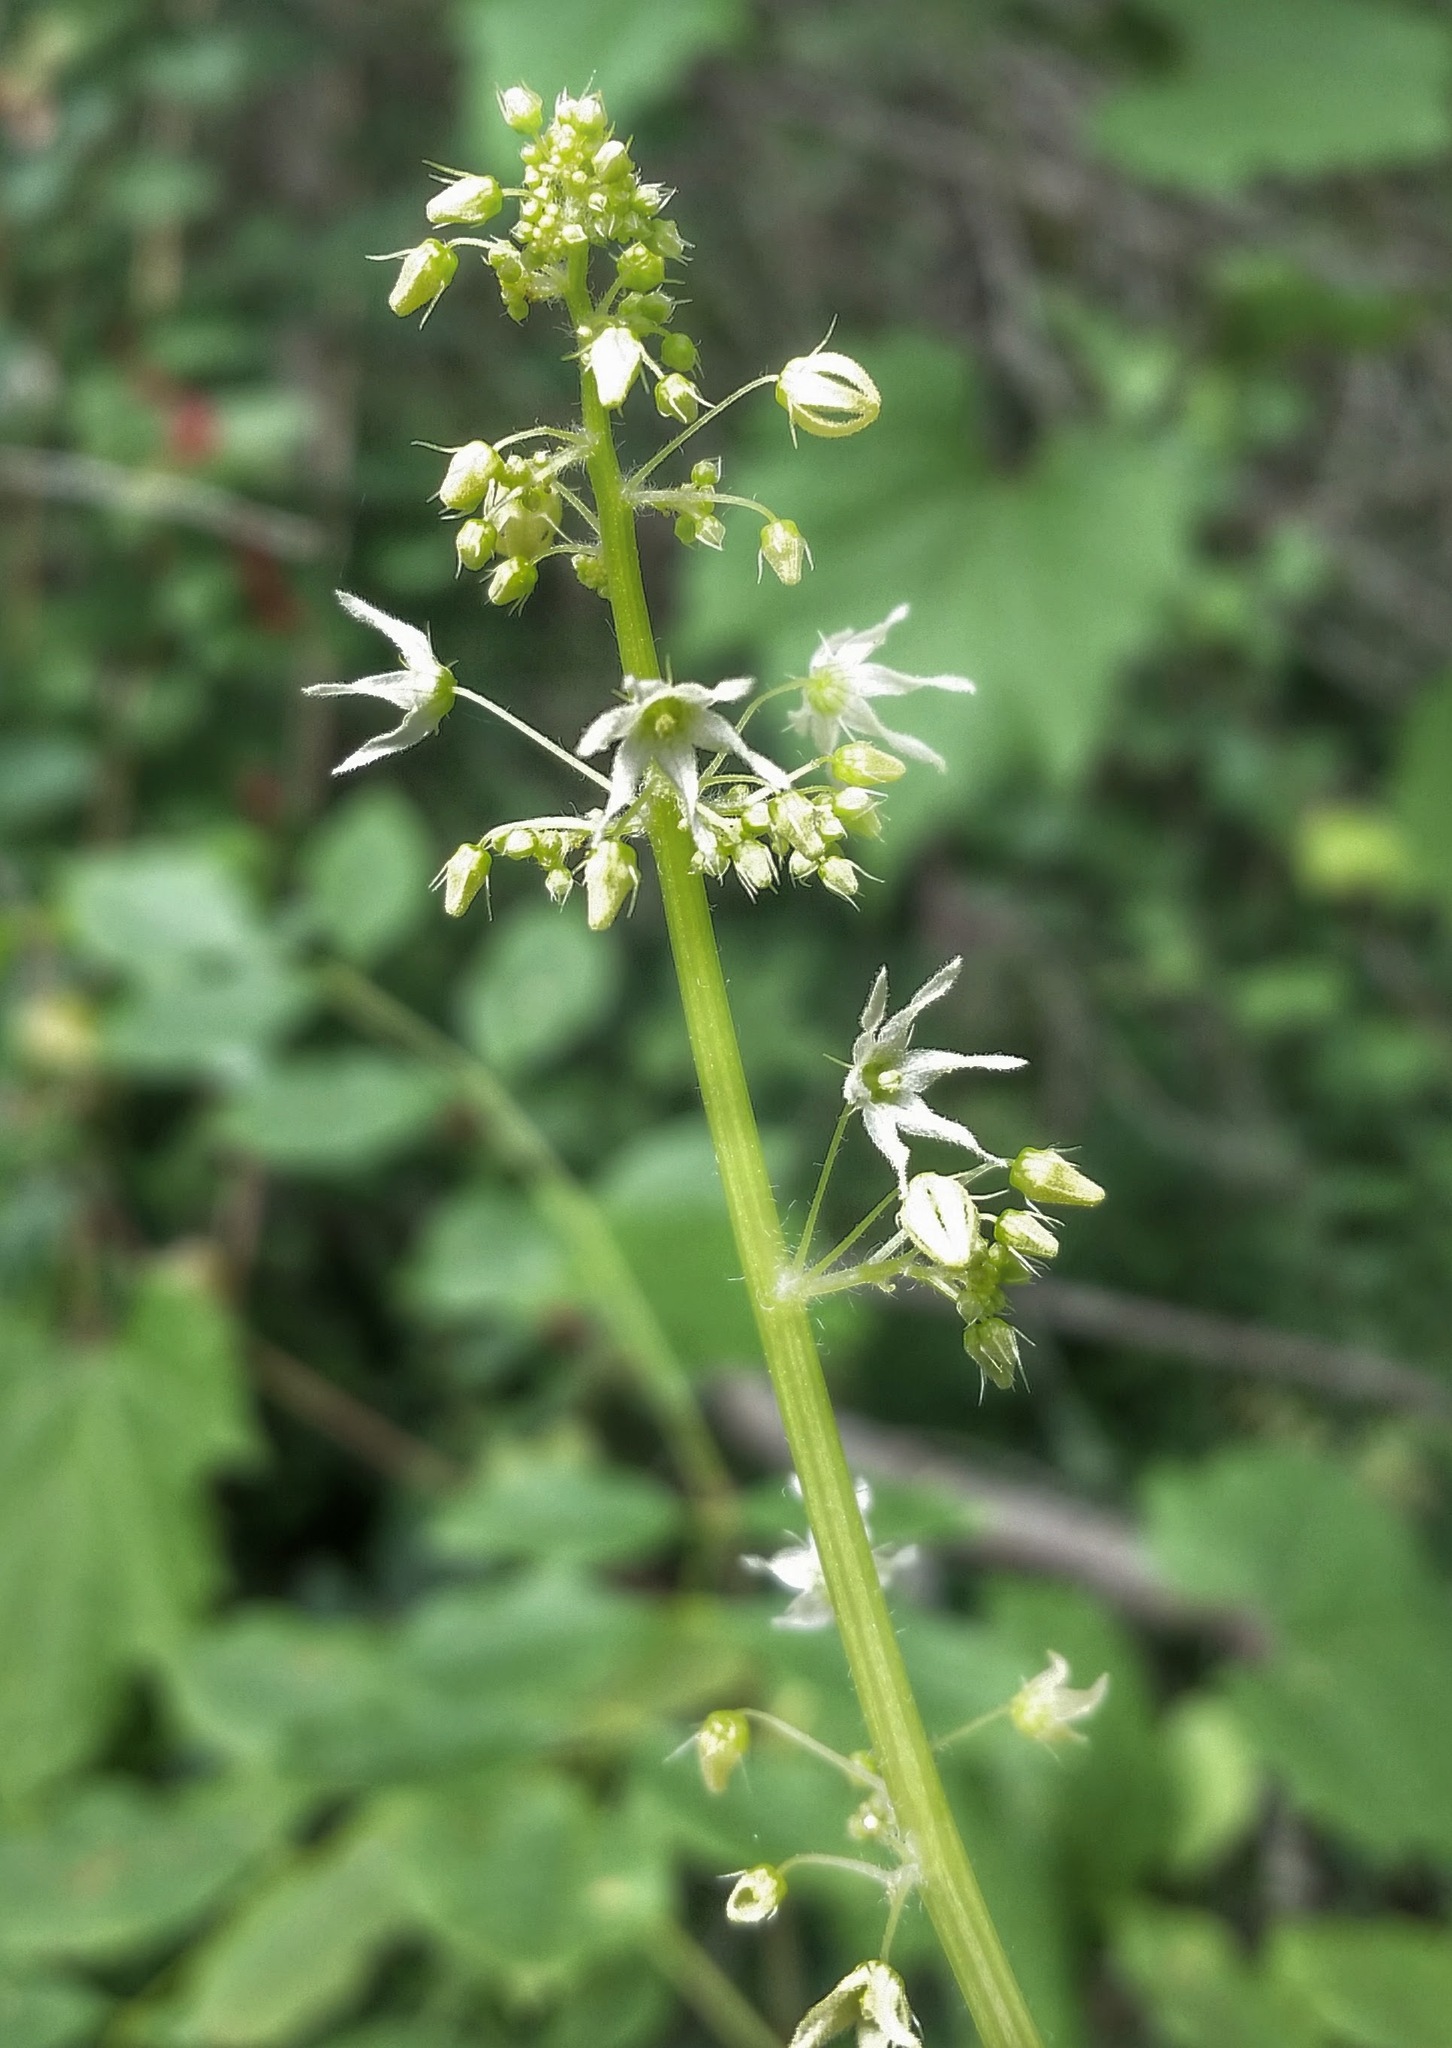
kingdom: Plantae
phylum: Tracheophyta
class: Magnoliopsida
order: Cucurbitales
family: Cucurbitaceae
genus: Echinocystis
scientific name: Echinocystis lobata
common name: Wild cucumber
